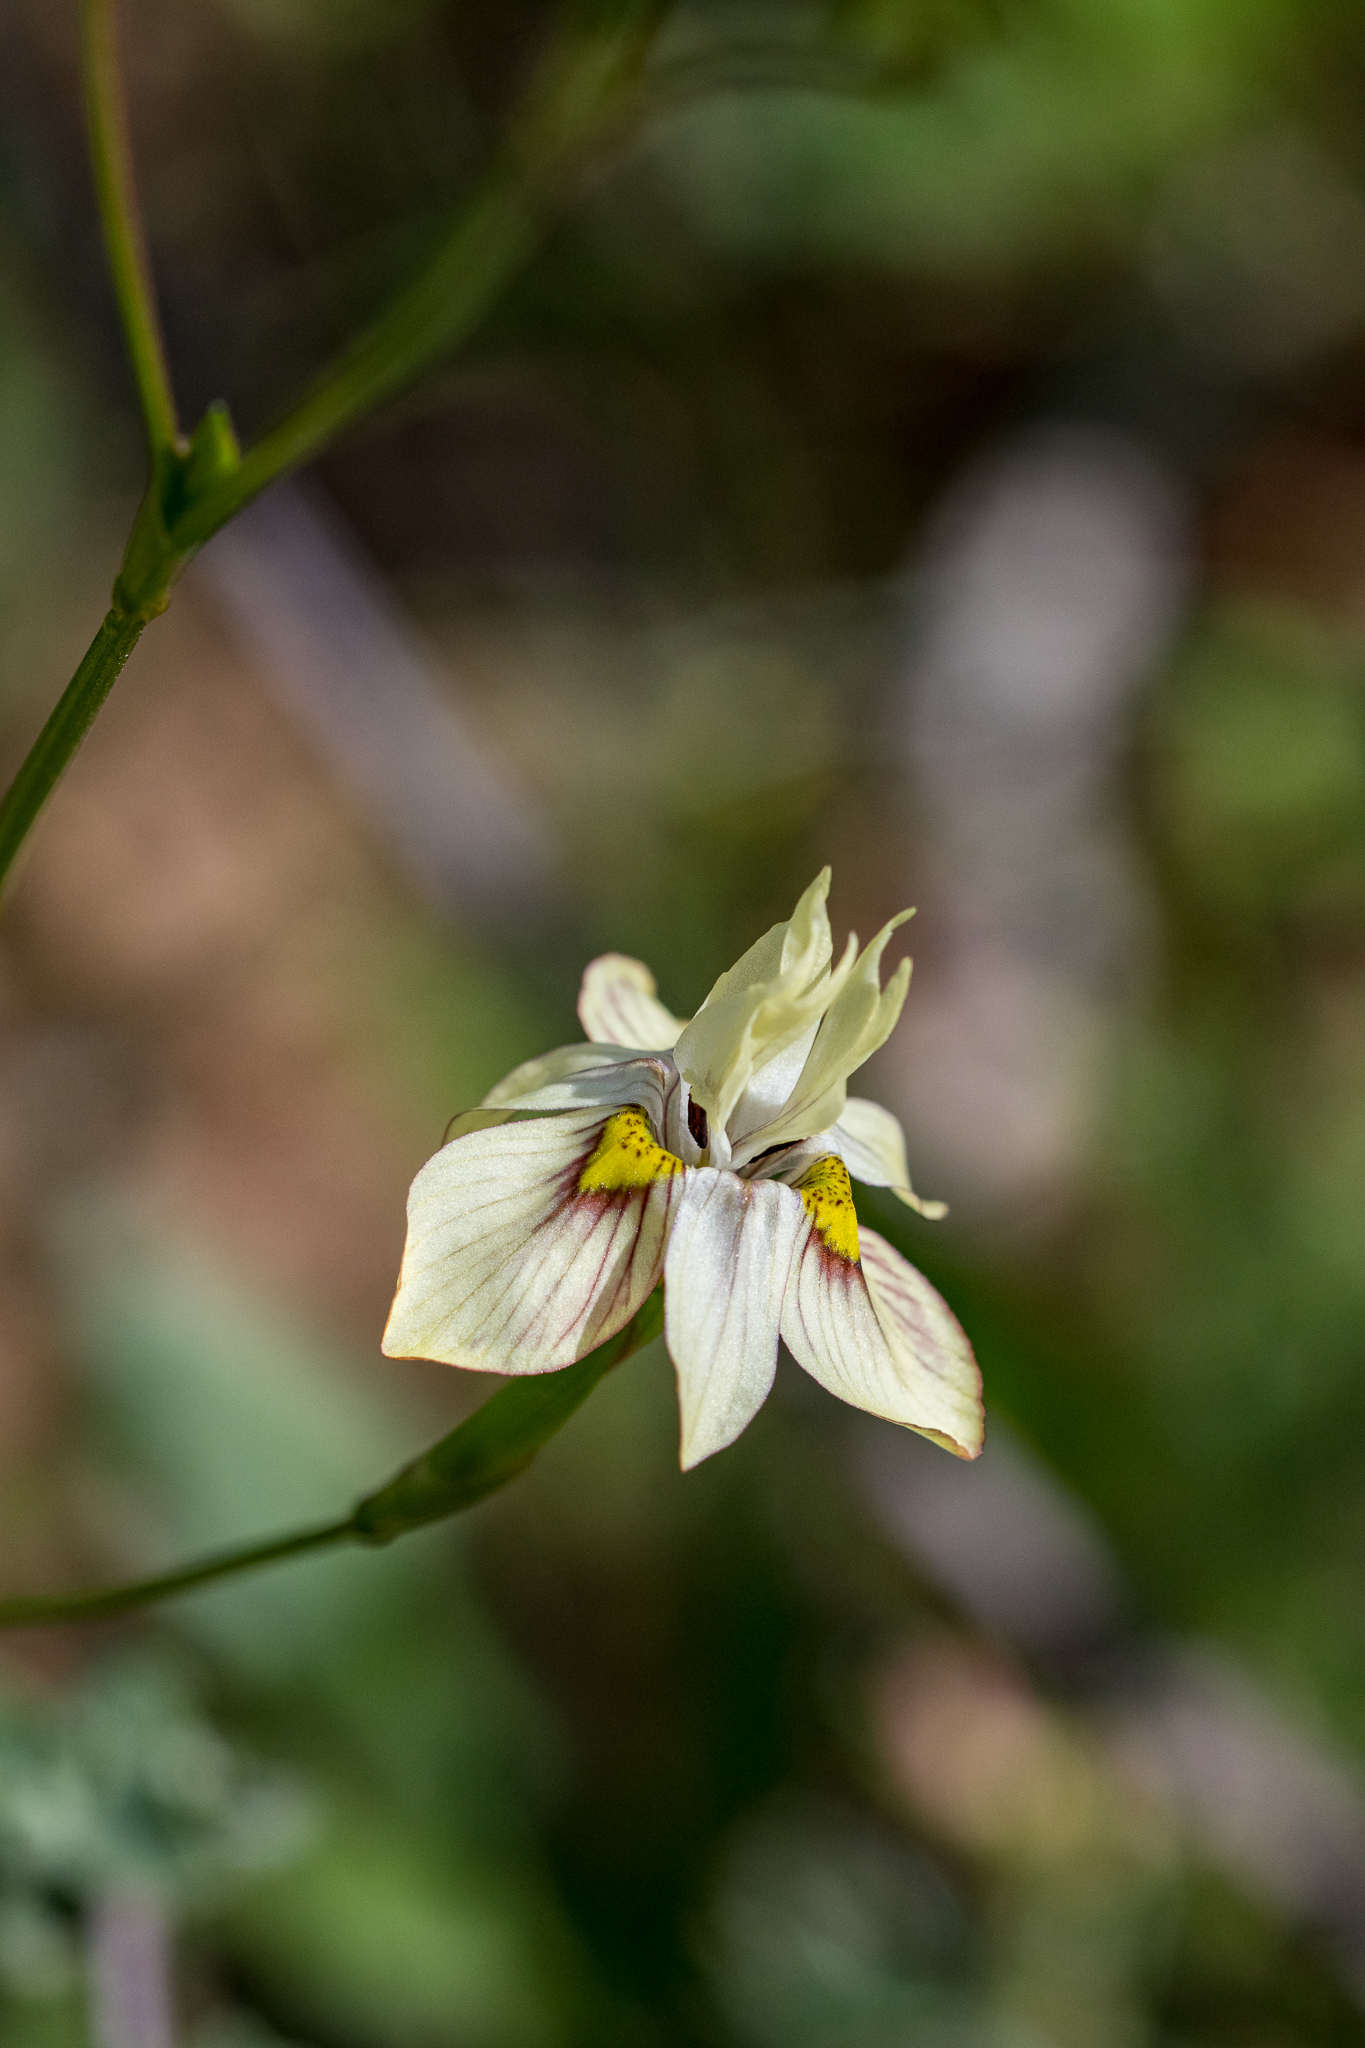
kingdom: Plantae
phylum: Tracheophyta
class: Liliopsida
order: Asparagales
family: Iridaceae
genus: Moraea
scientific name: Moraea gawleri
